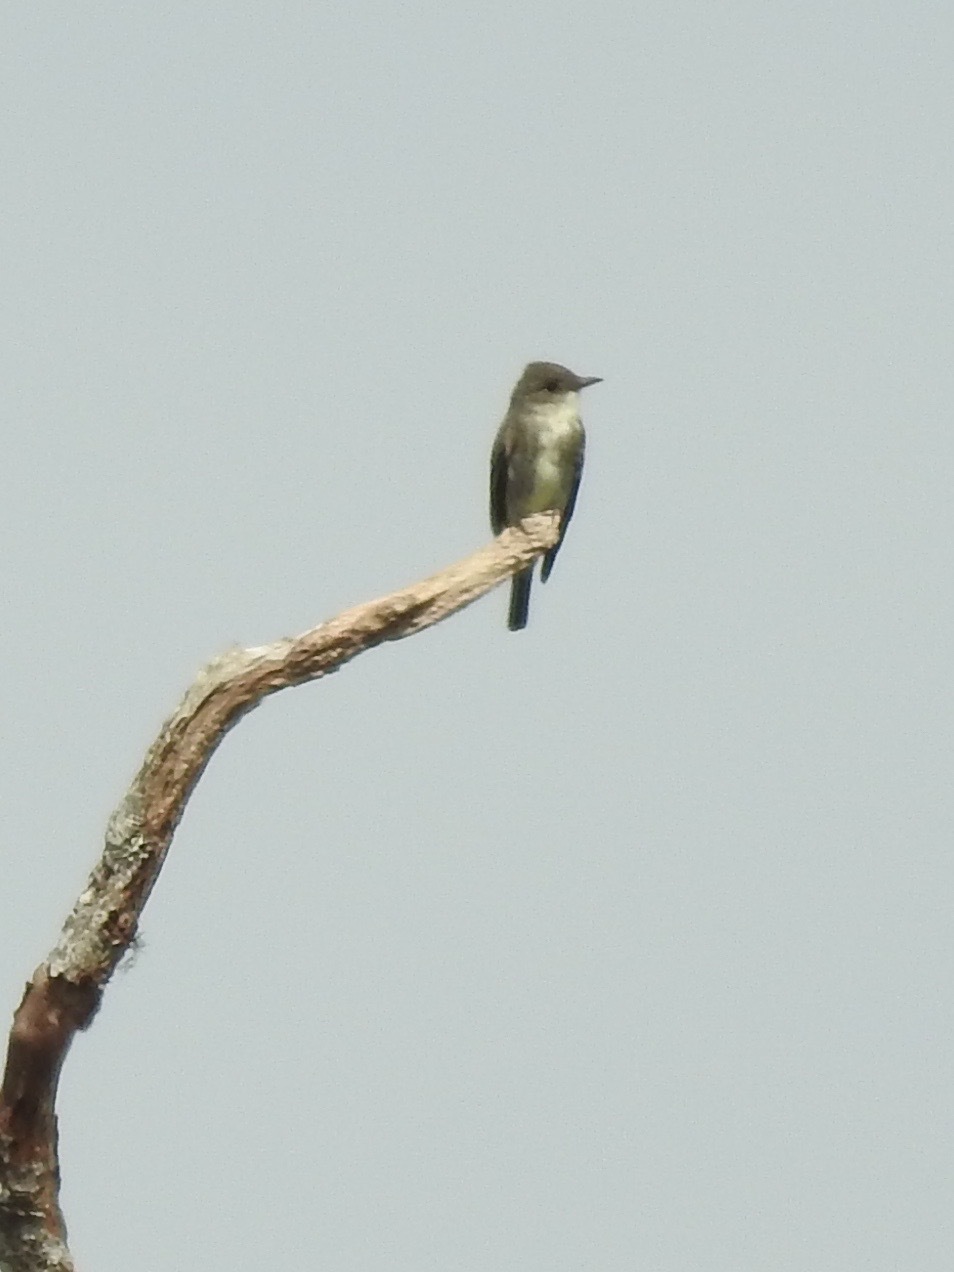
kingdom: Animalia
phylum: Chordata
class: Aves
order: Passeriformes
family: Tyrannidae
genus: Contopus
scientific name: Contopus cooperi
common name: Olive-sided flycatcher
